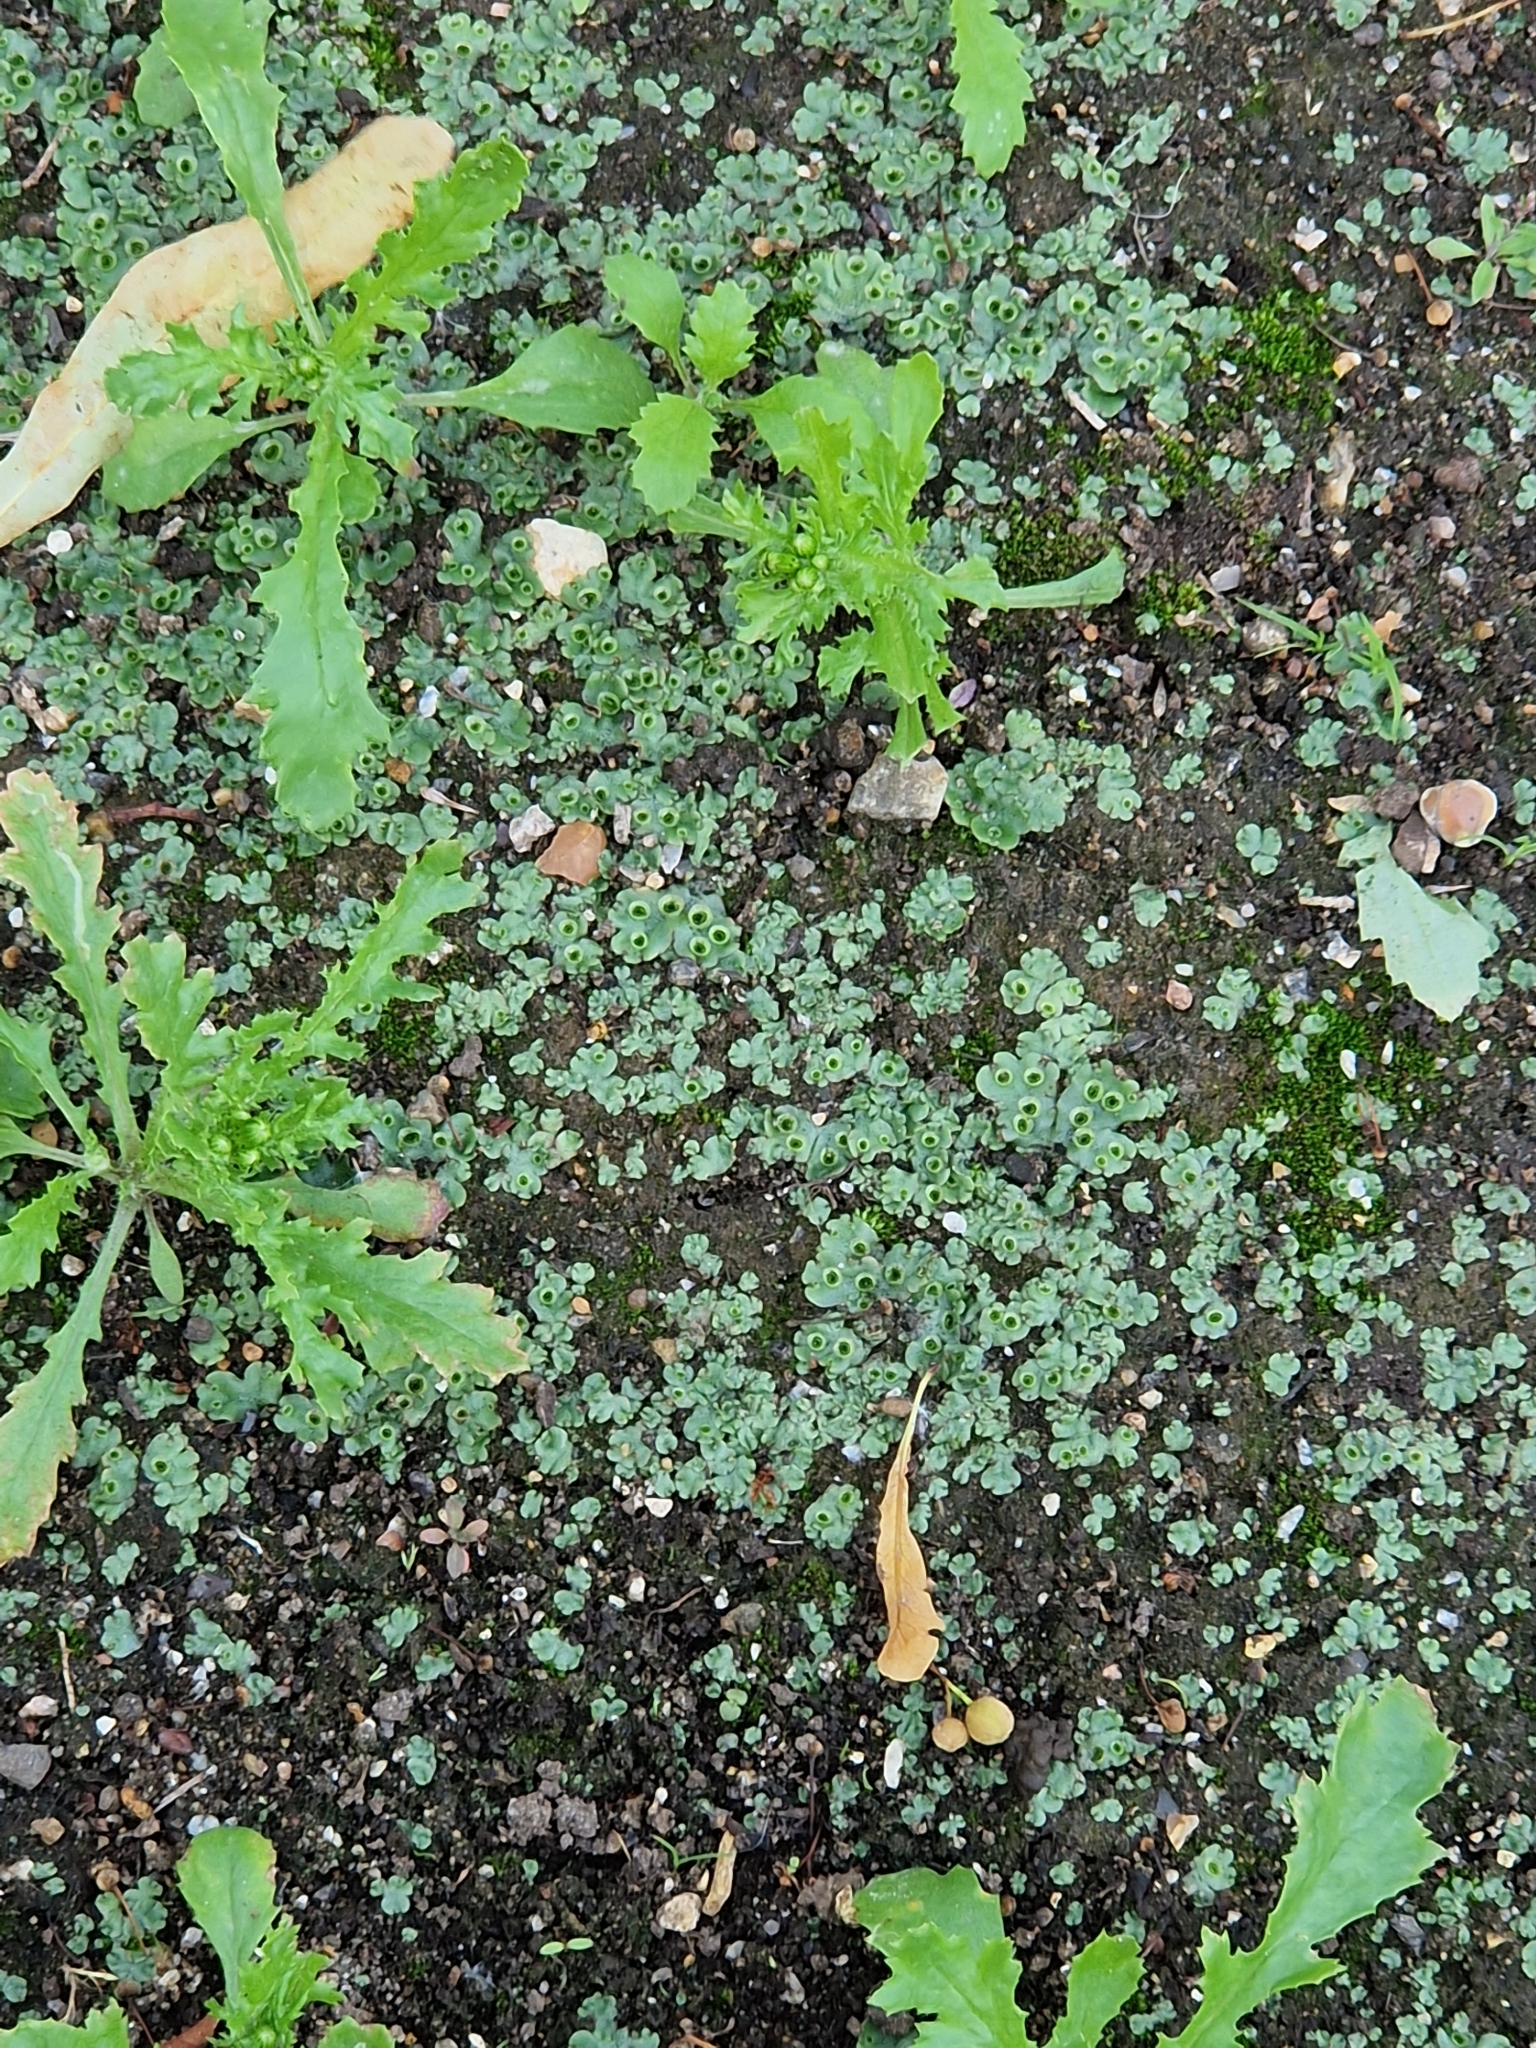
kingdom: Plantae
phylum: Marchantiophyta
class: Marchantiopsida
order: Marchantiales
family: Marchantiaceae
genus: Marchantia
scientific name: Marchantia polymorpha
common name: Common liverwort
